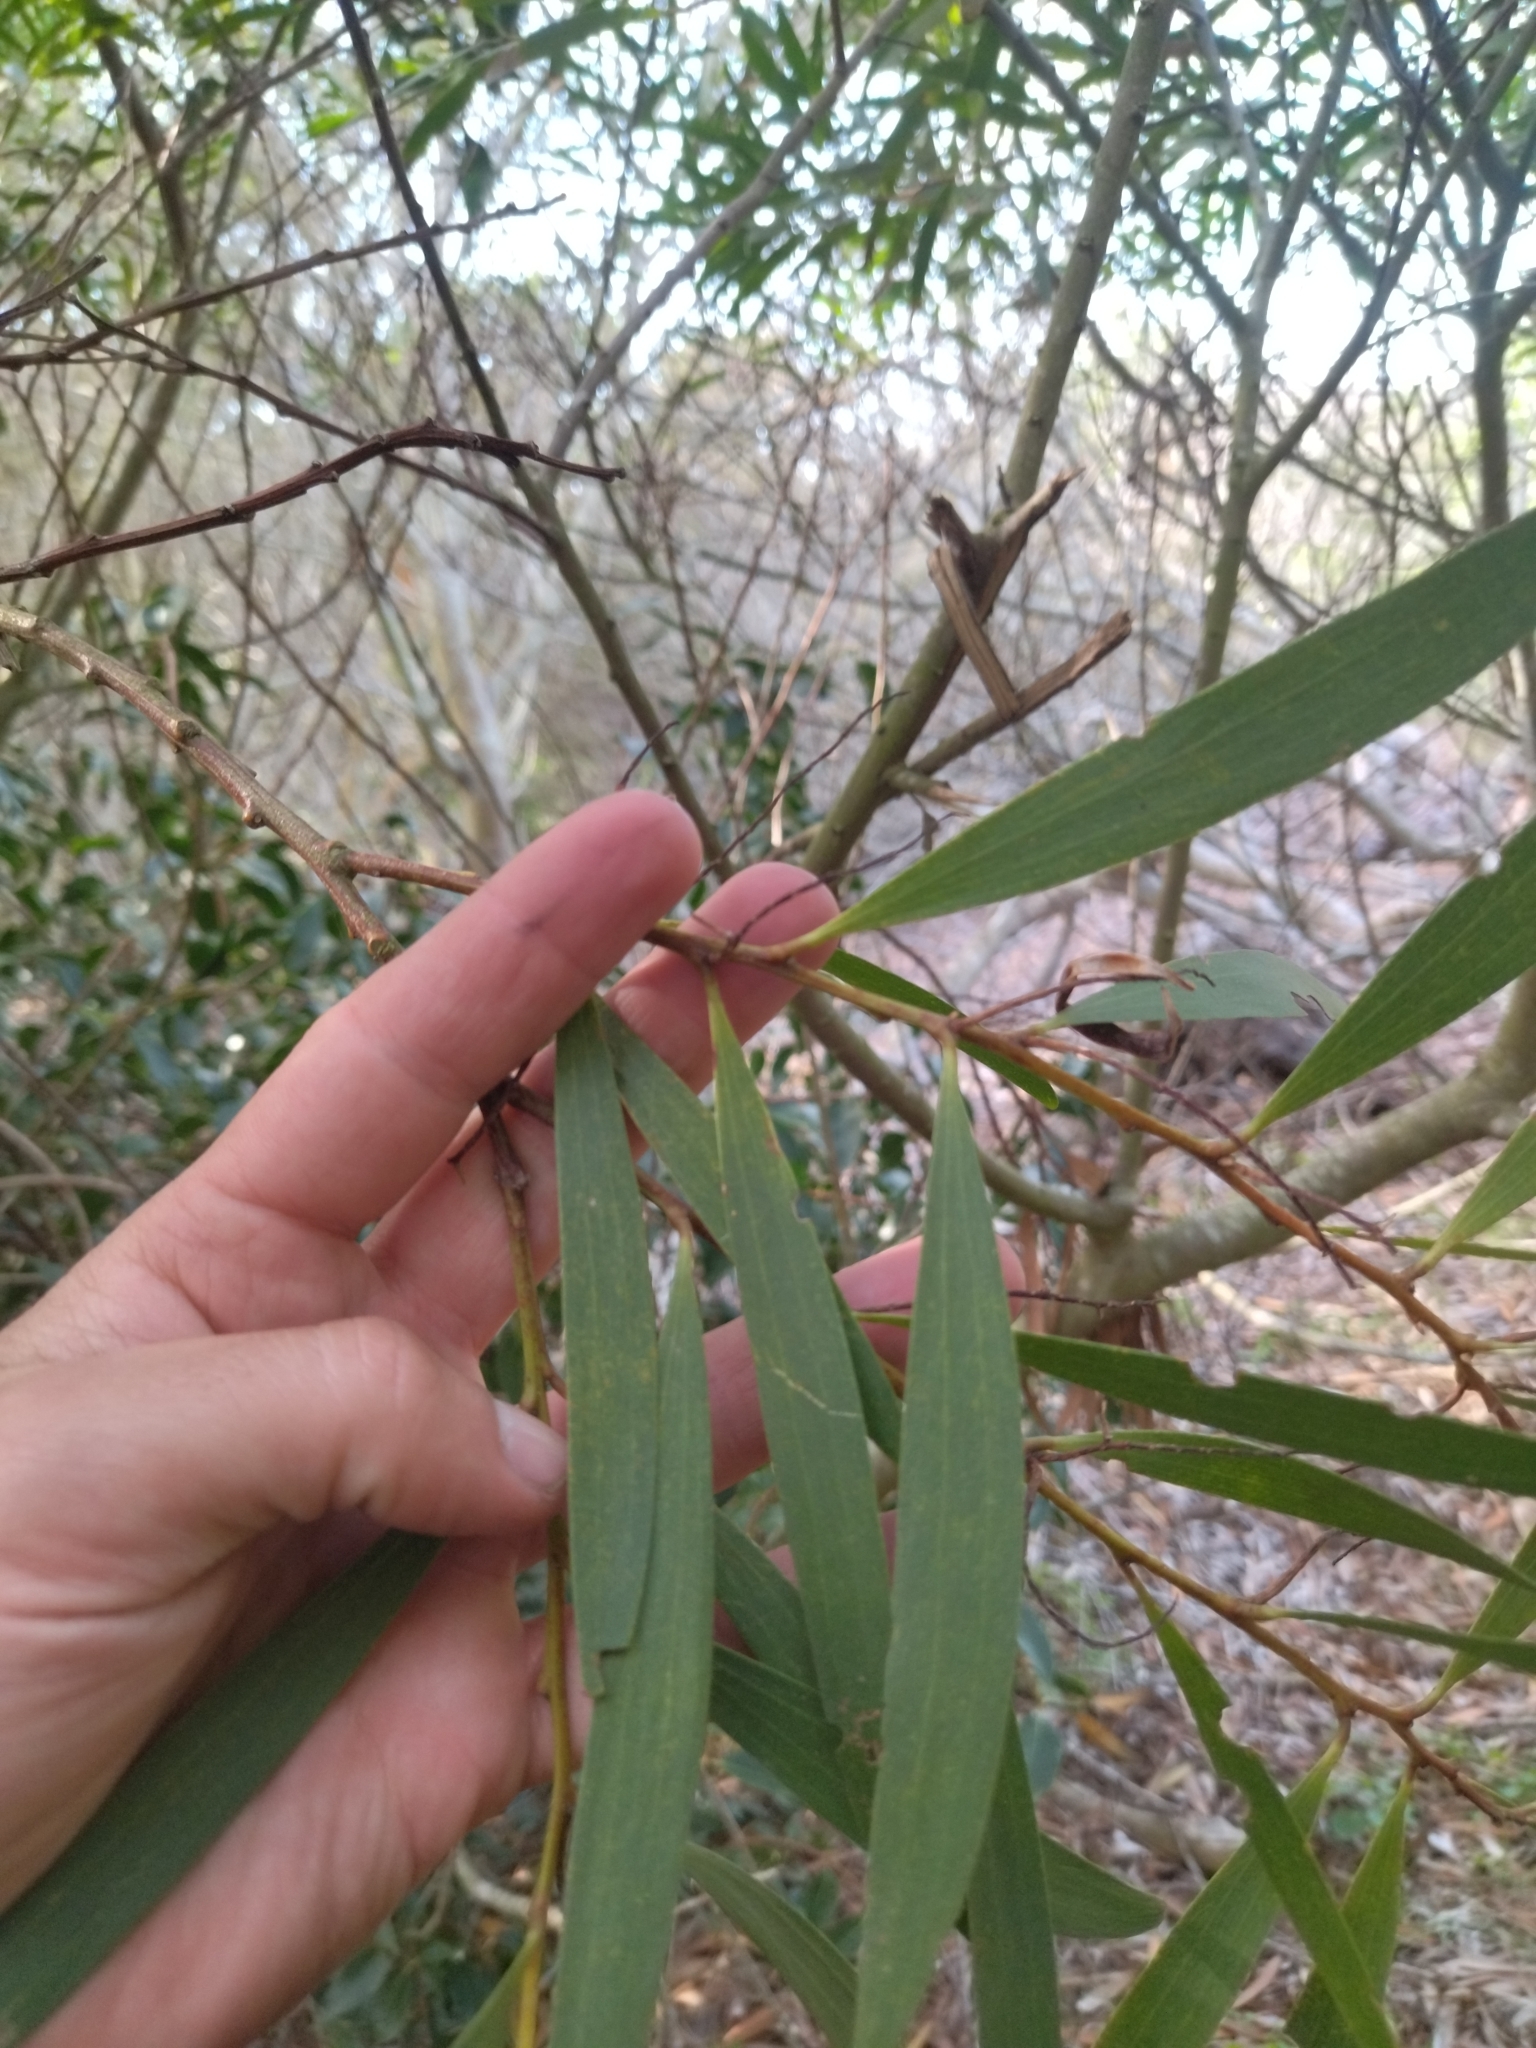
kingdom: Plantae
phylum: Tracheophyta
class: Magnoliopsida
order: Fabales
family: Fabaceae
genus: Acacia
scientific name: Acacia longifolia
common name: Sydney golden wattle
